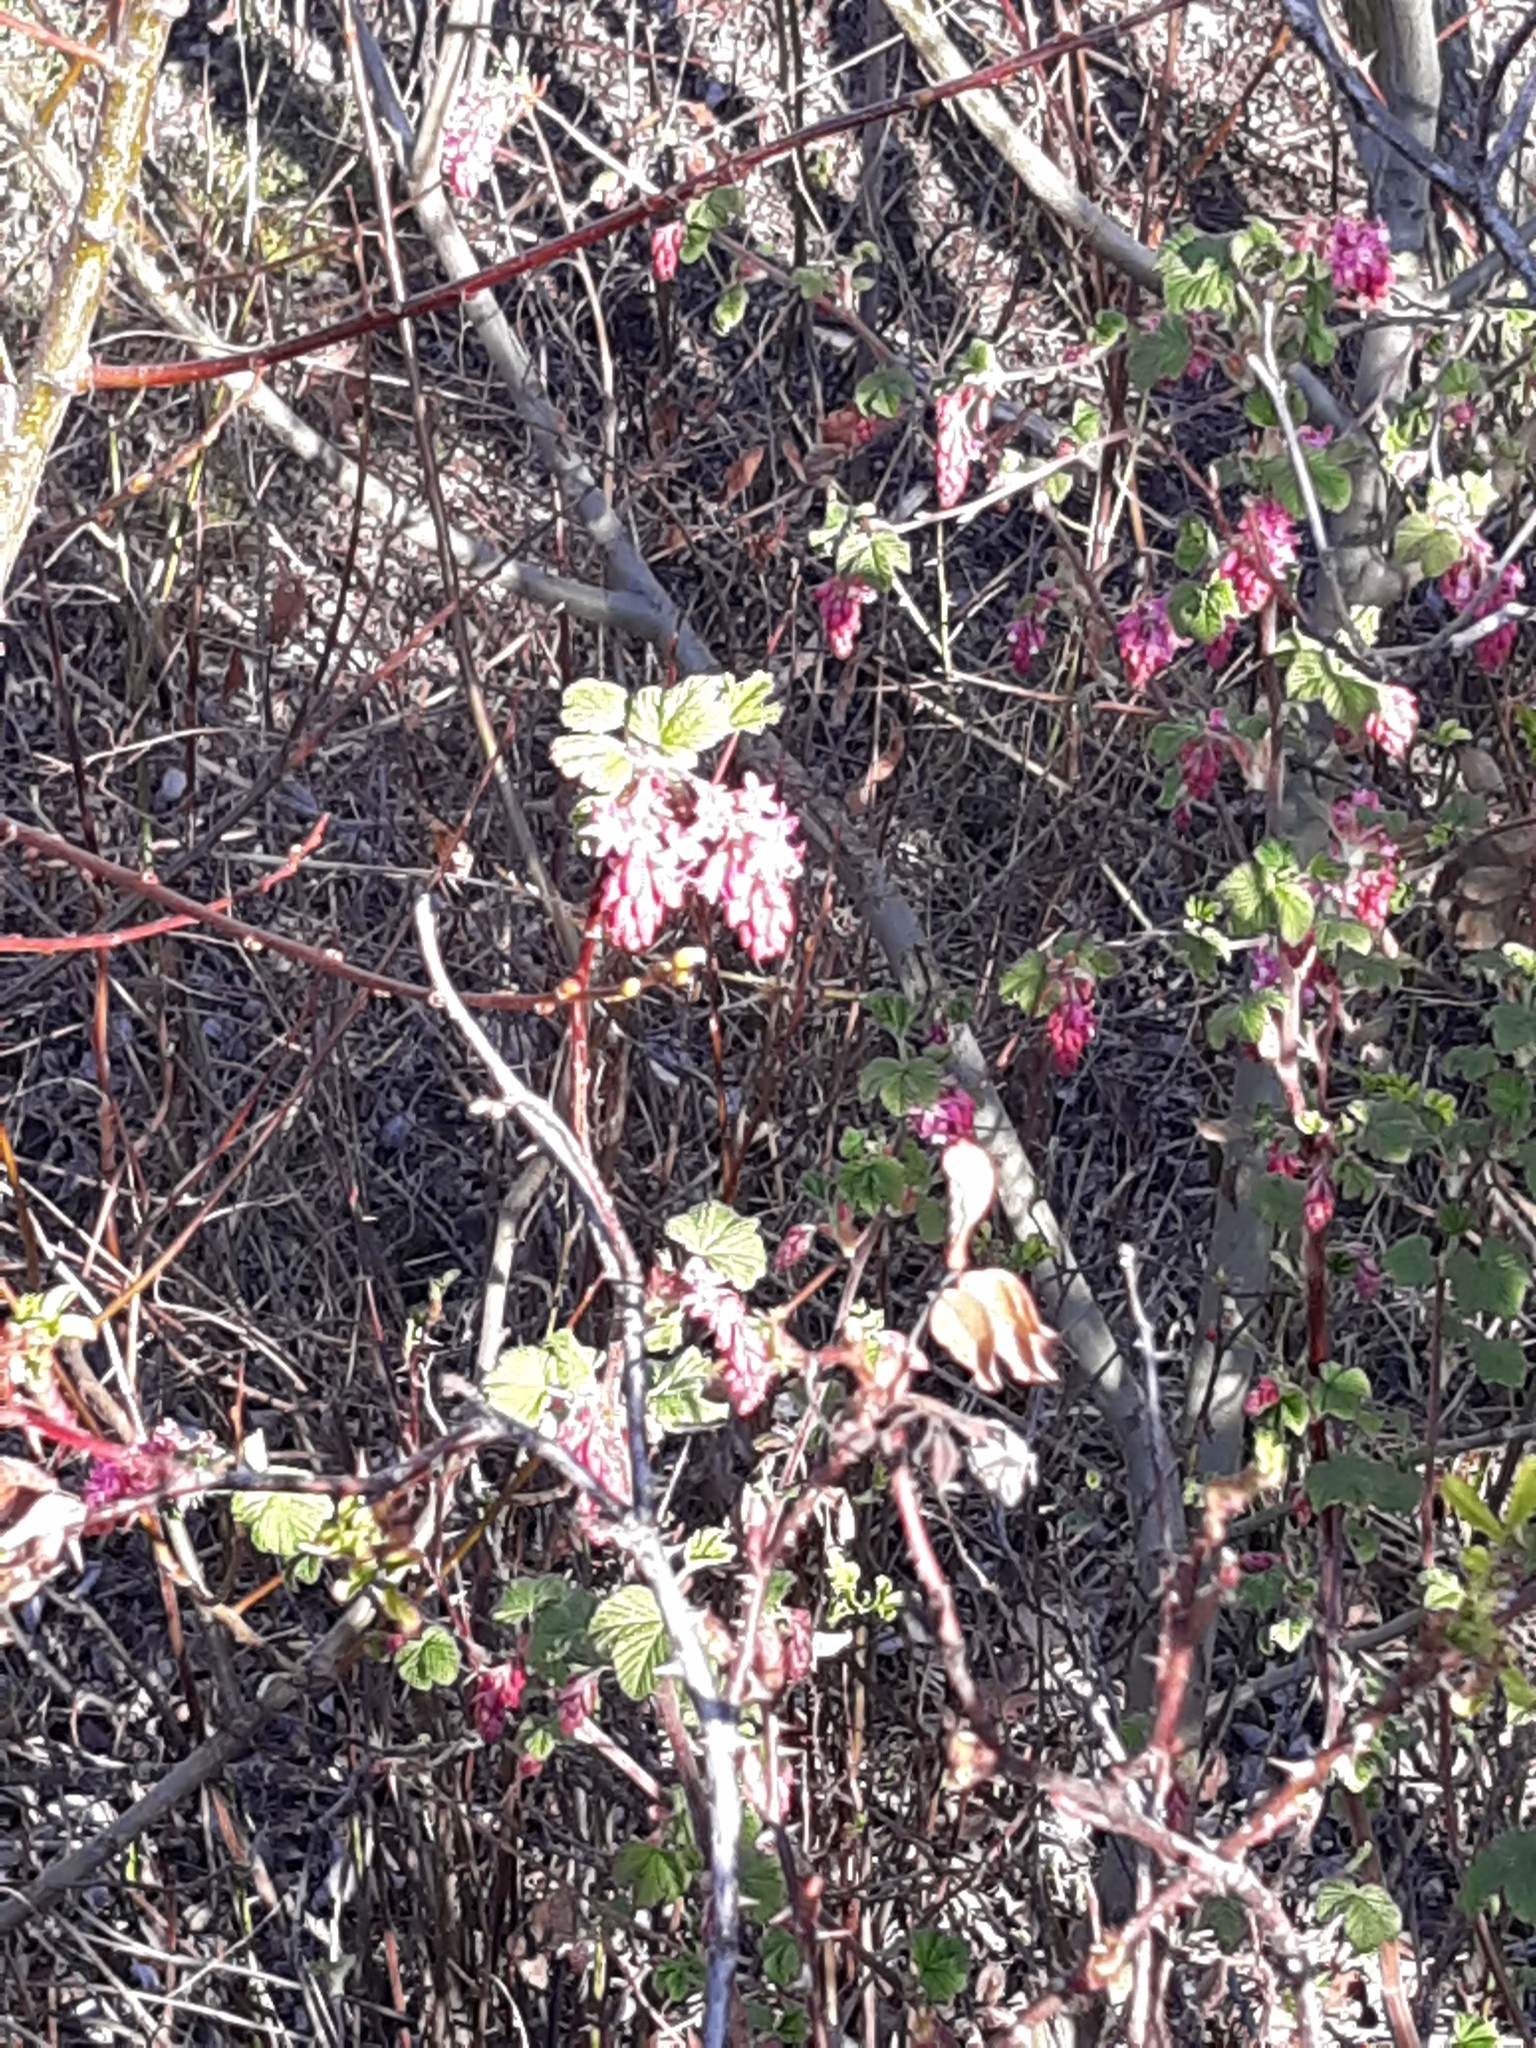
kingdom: Plantae
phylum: Tracheophyta
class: Magnoliopsida
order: Saxifragales
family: Grossulariaceae
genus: Ribes
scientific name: Ribes sanguineum
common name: Flowering currant
